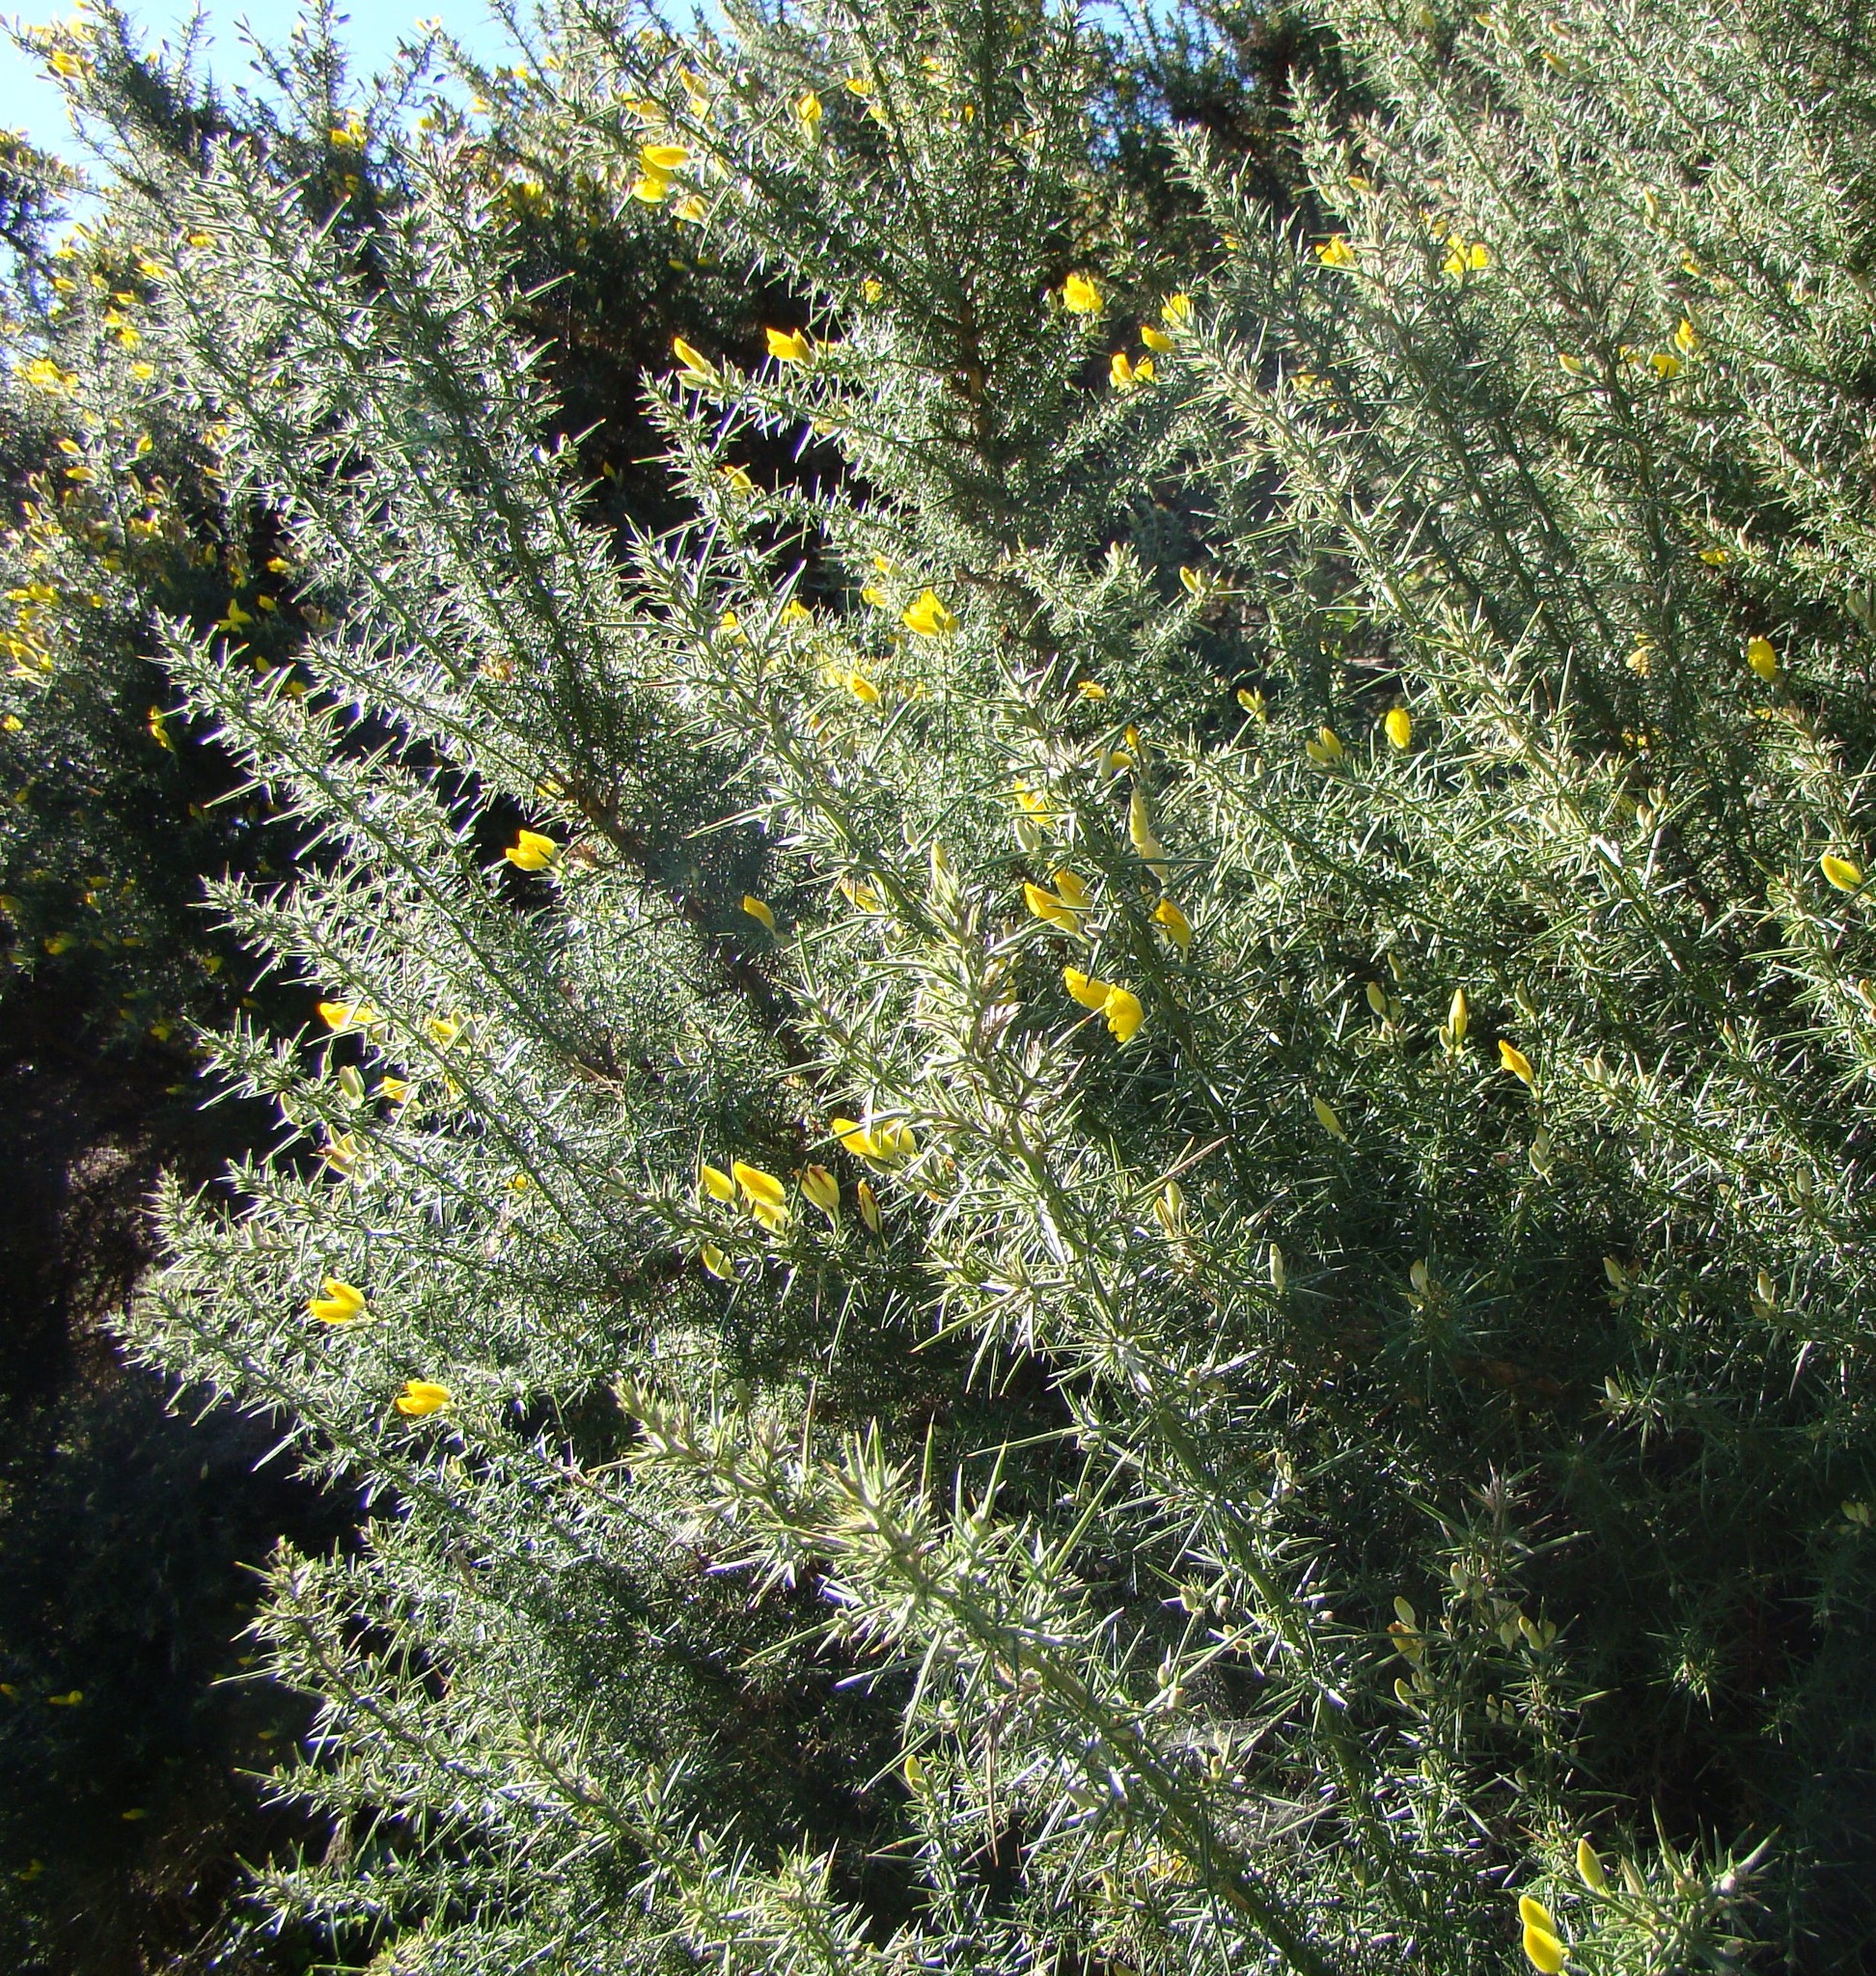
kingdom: Plantae
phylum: Tracheophyta
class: Magnoliopsida
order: Fabales
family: Fabaceae
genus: Ulex
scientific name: Ulex europaeus
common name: Common gorse
